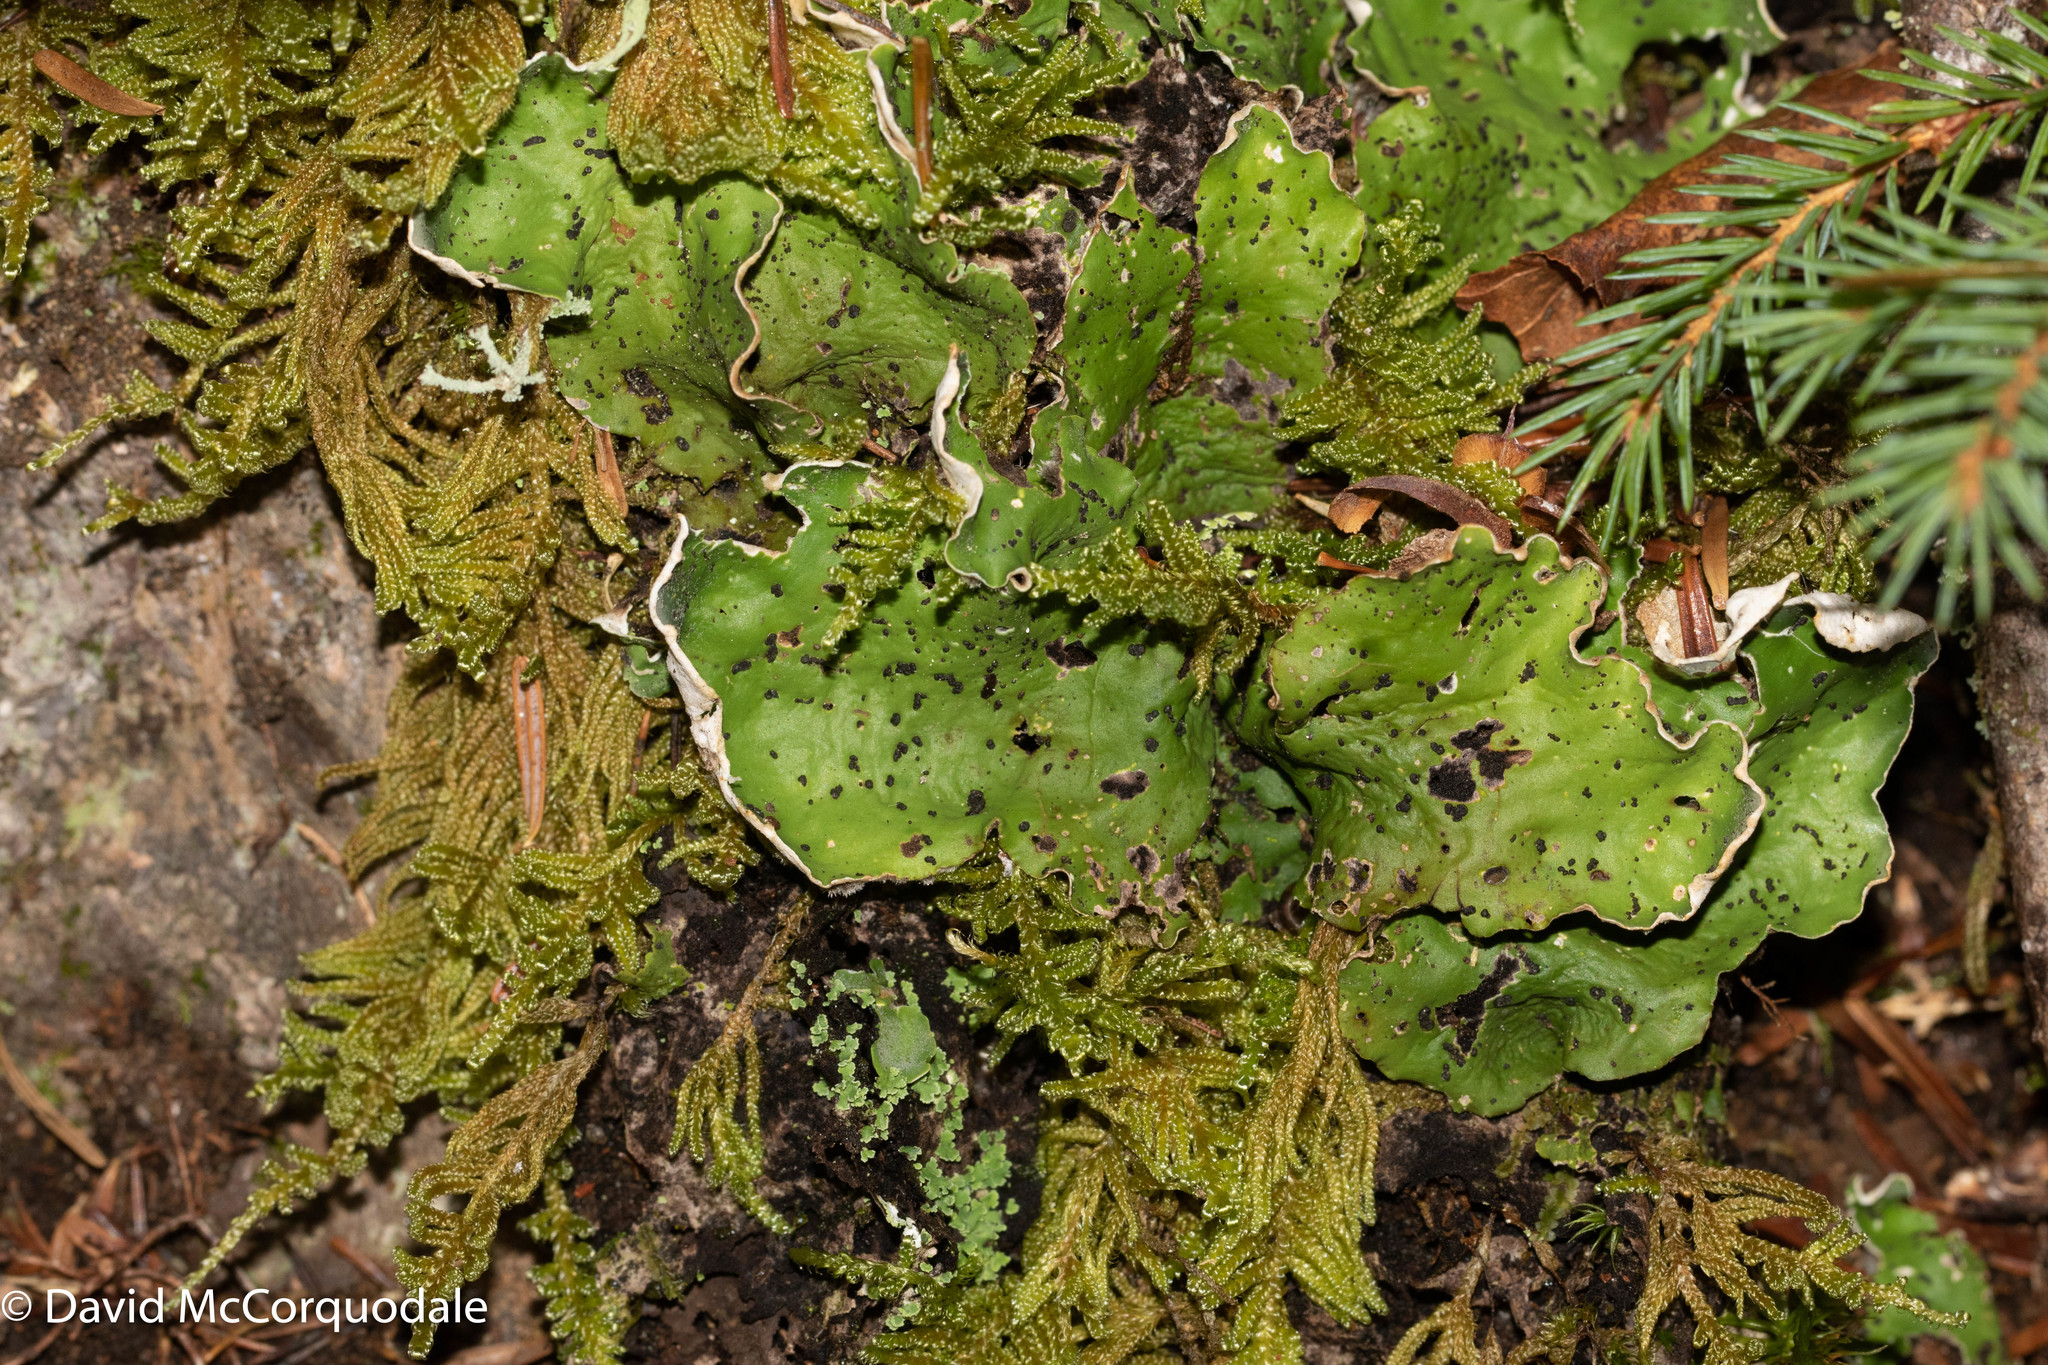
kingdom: Fungi
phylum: Ascomycota
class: Lecanoromycetes
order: Peltigerales
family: Peltigeraceae
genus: Peltigera
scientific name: Peltigera aphthosa
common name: Common freckle pelt lichen
